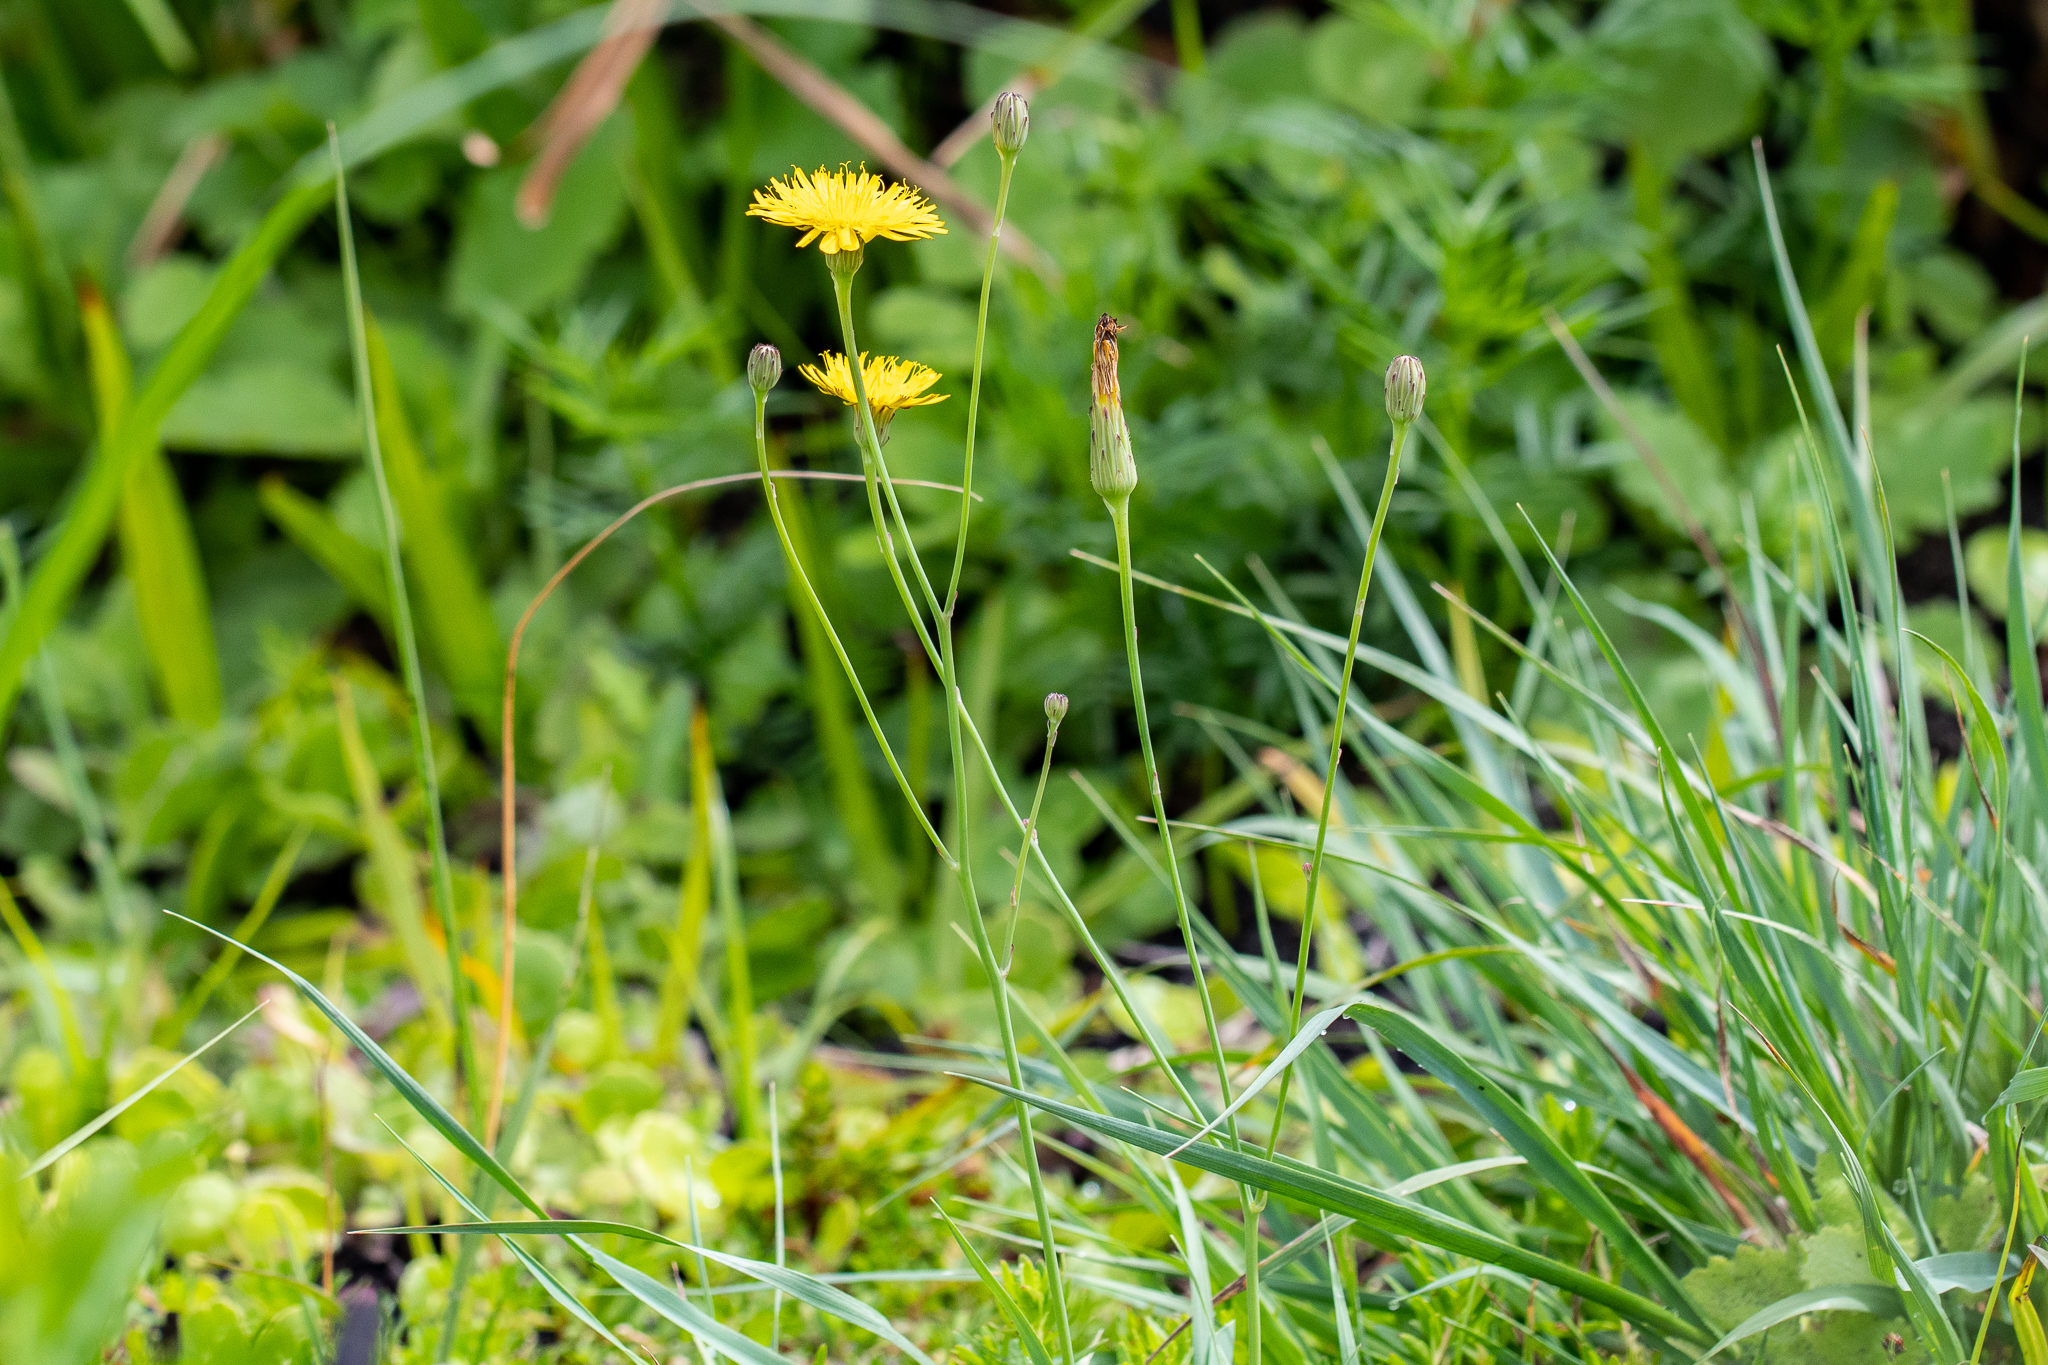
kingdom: Plantae
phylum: Tracheophyta
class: Magnoliopsida
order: Asterales
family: Asteraceae
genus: Hypochaeris
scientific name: Hypochaeris radicata
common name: Flatweed
